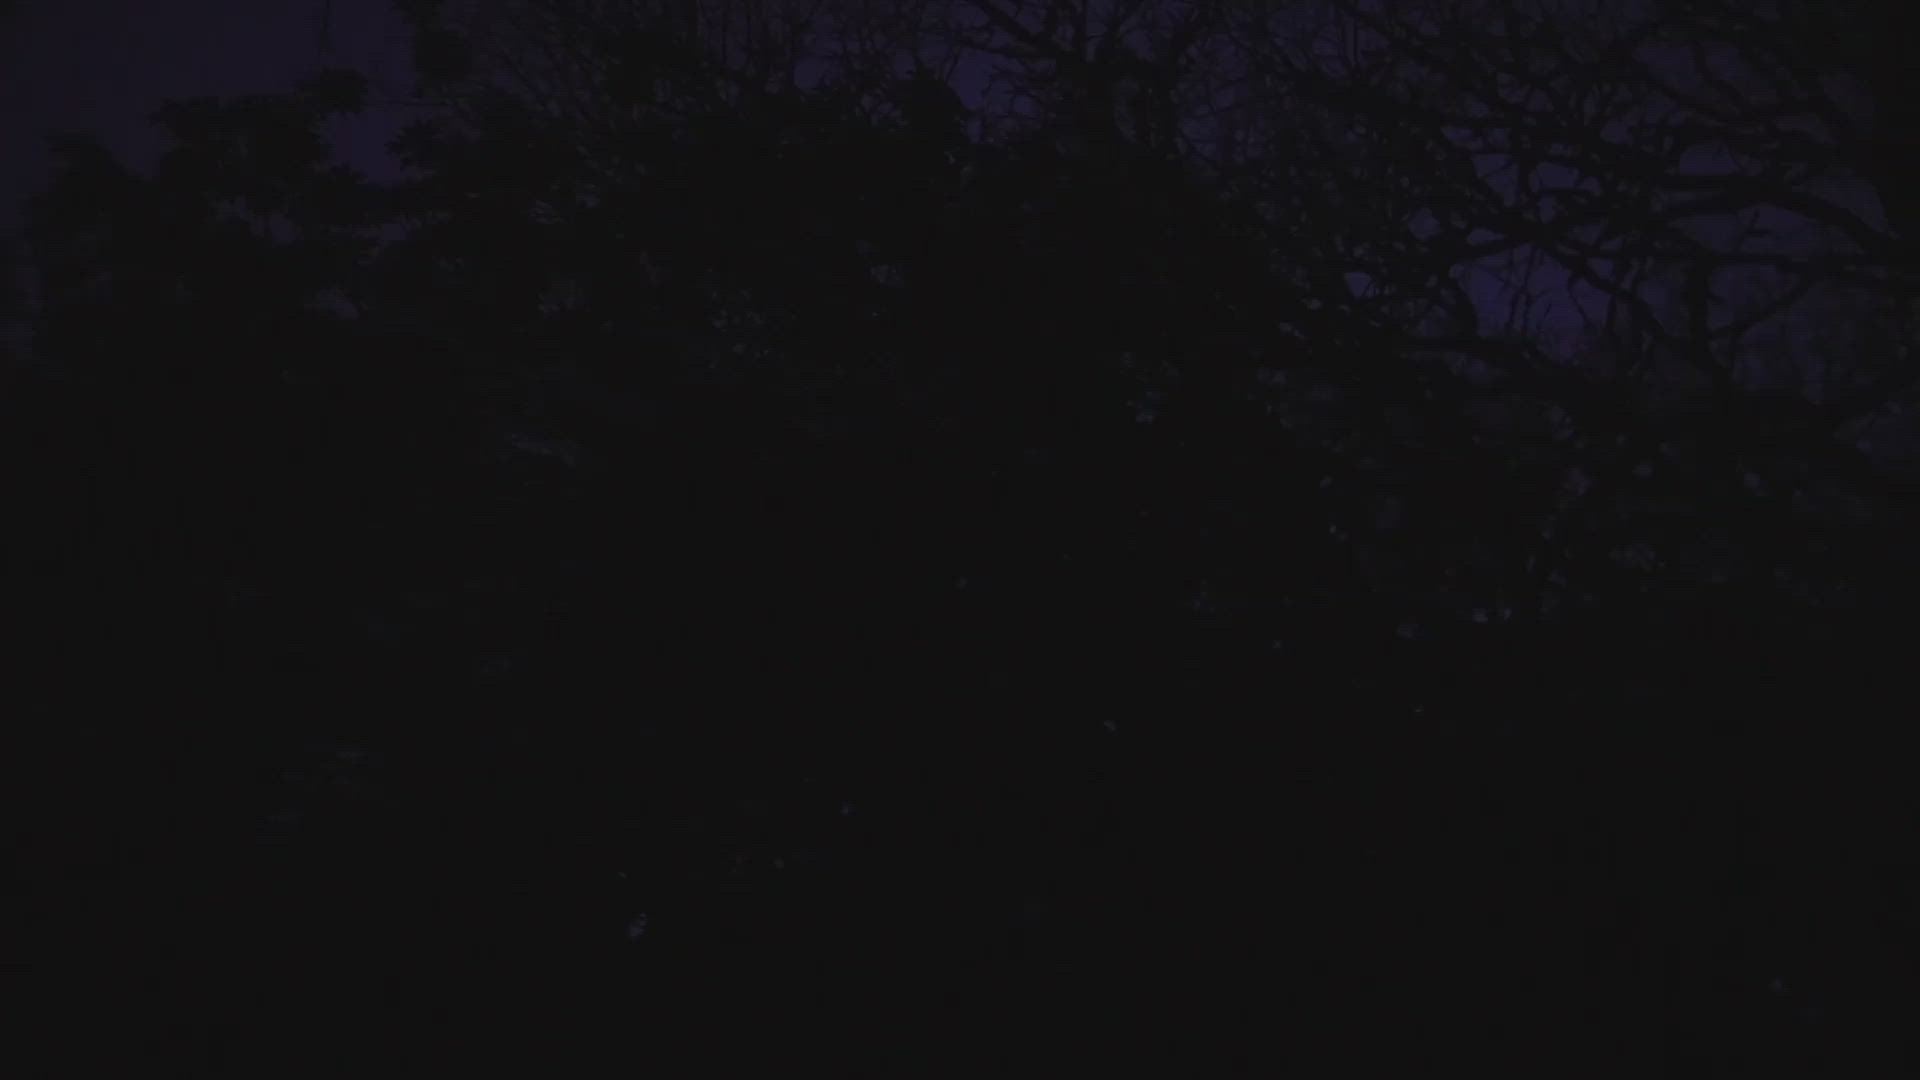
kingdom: Animalia
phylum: Chordata
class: Aves
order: Strigiformes
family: Strigidae
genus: Megascops
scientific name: Megascops kennicottii
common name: Western screech-owl
